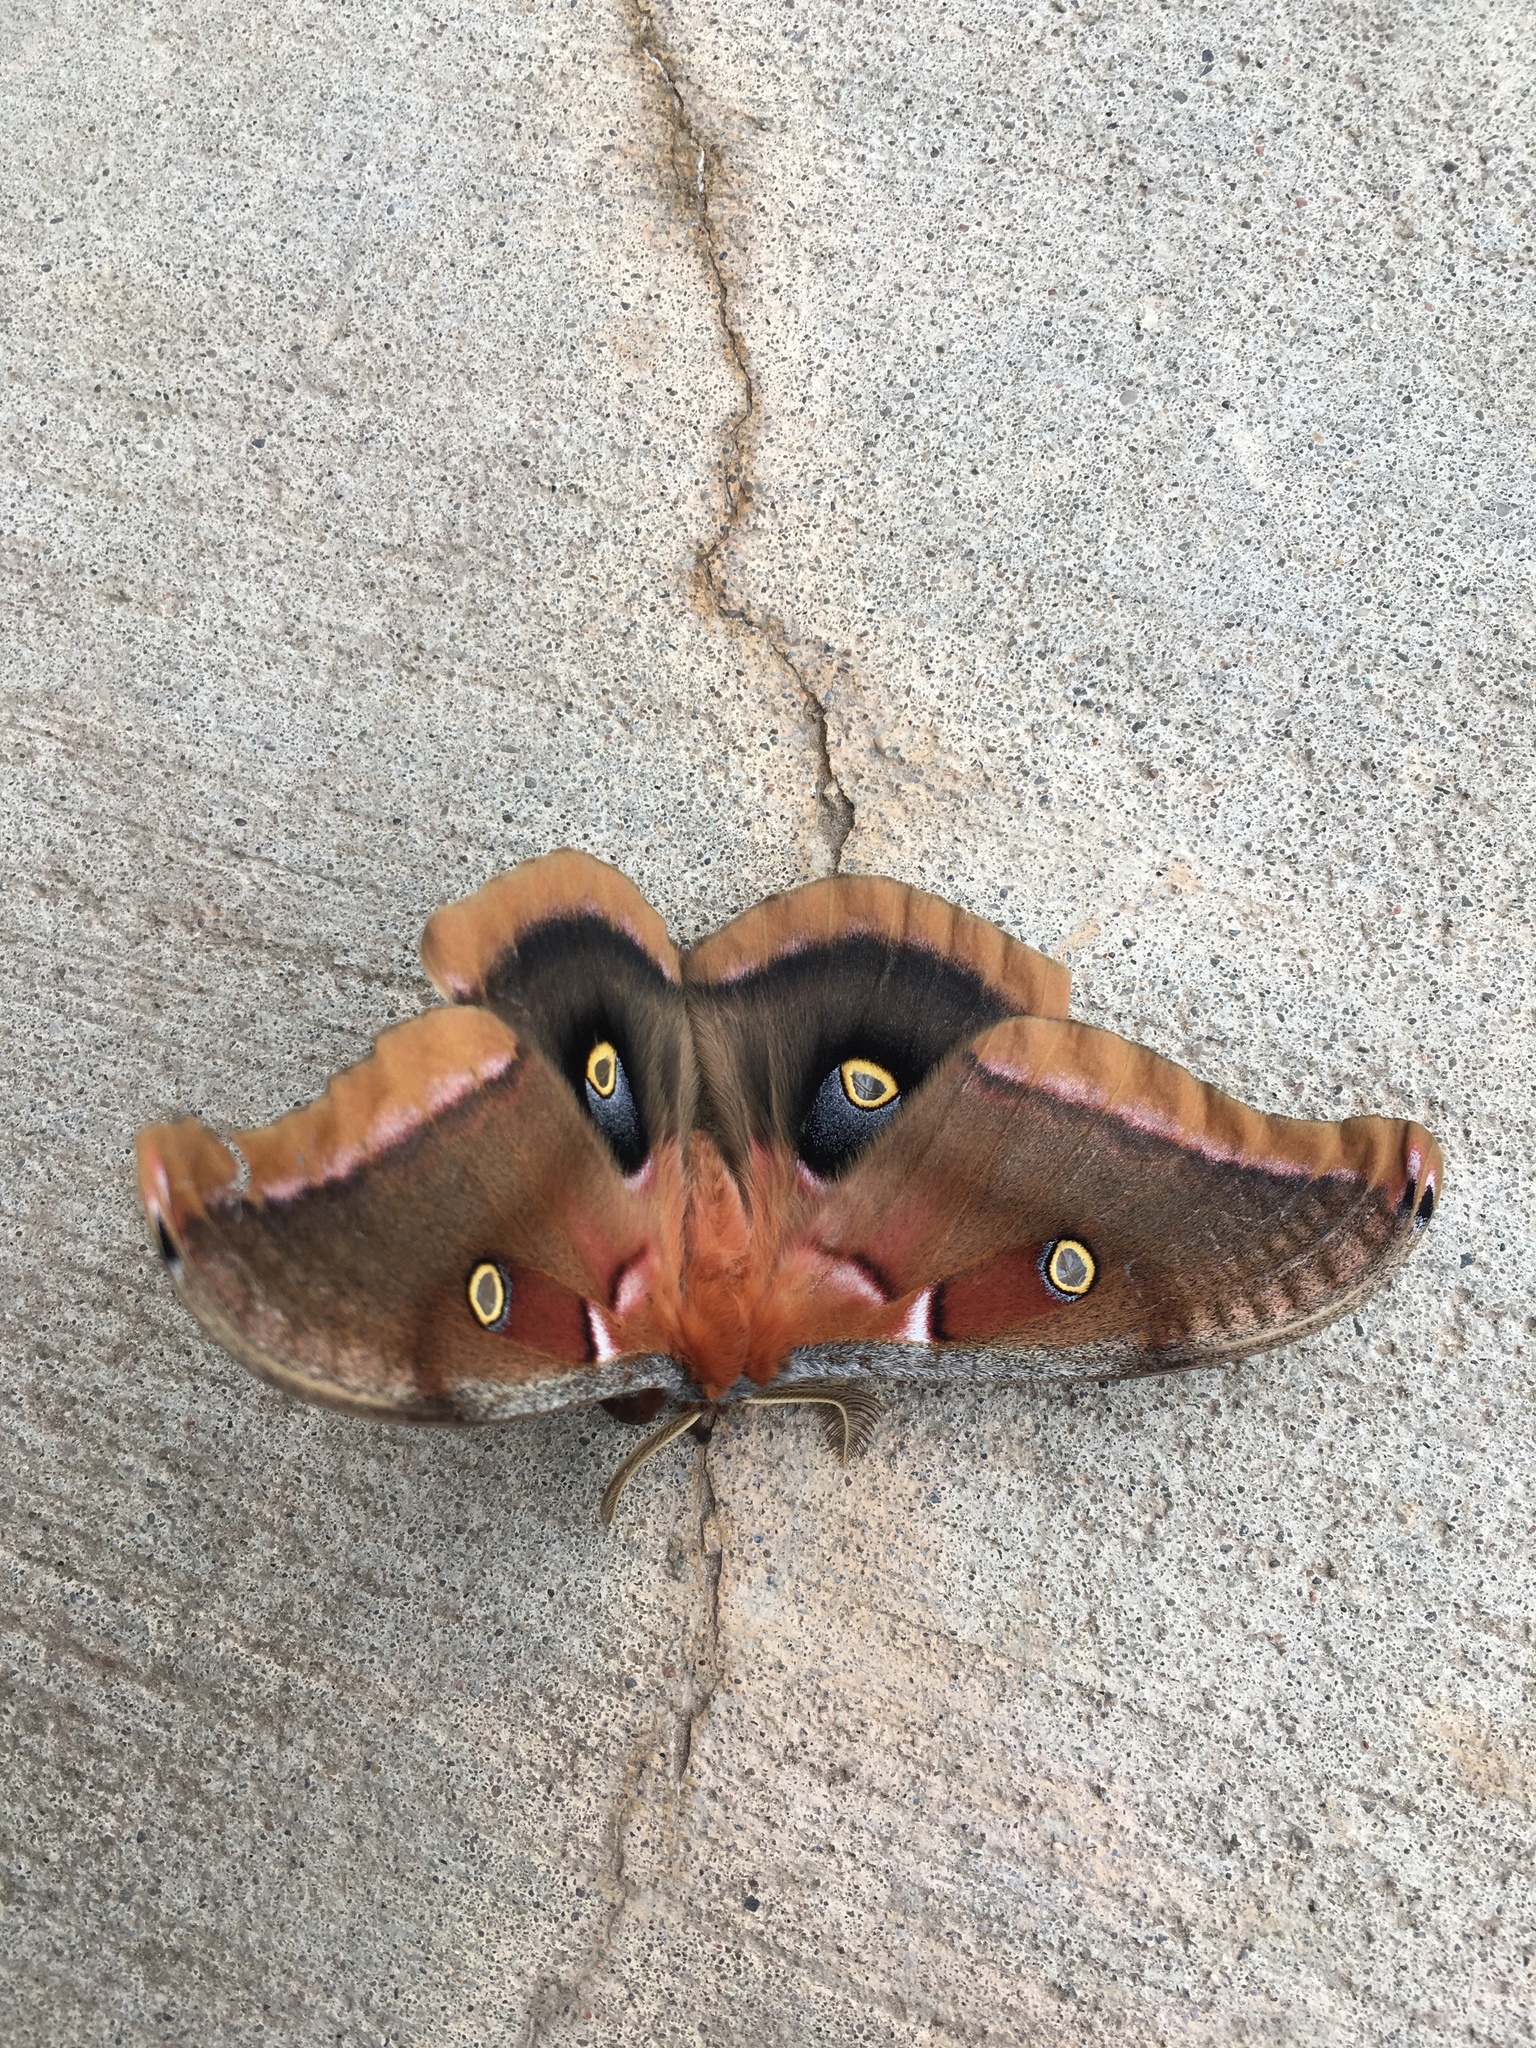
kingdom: Animalia
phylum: Arthropoda
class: Insecta
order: Lepidoptera
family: Saturniidae
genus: Antheraea
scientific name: Antheraea polyphemus
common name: Polyphemus moth
